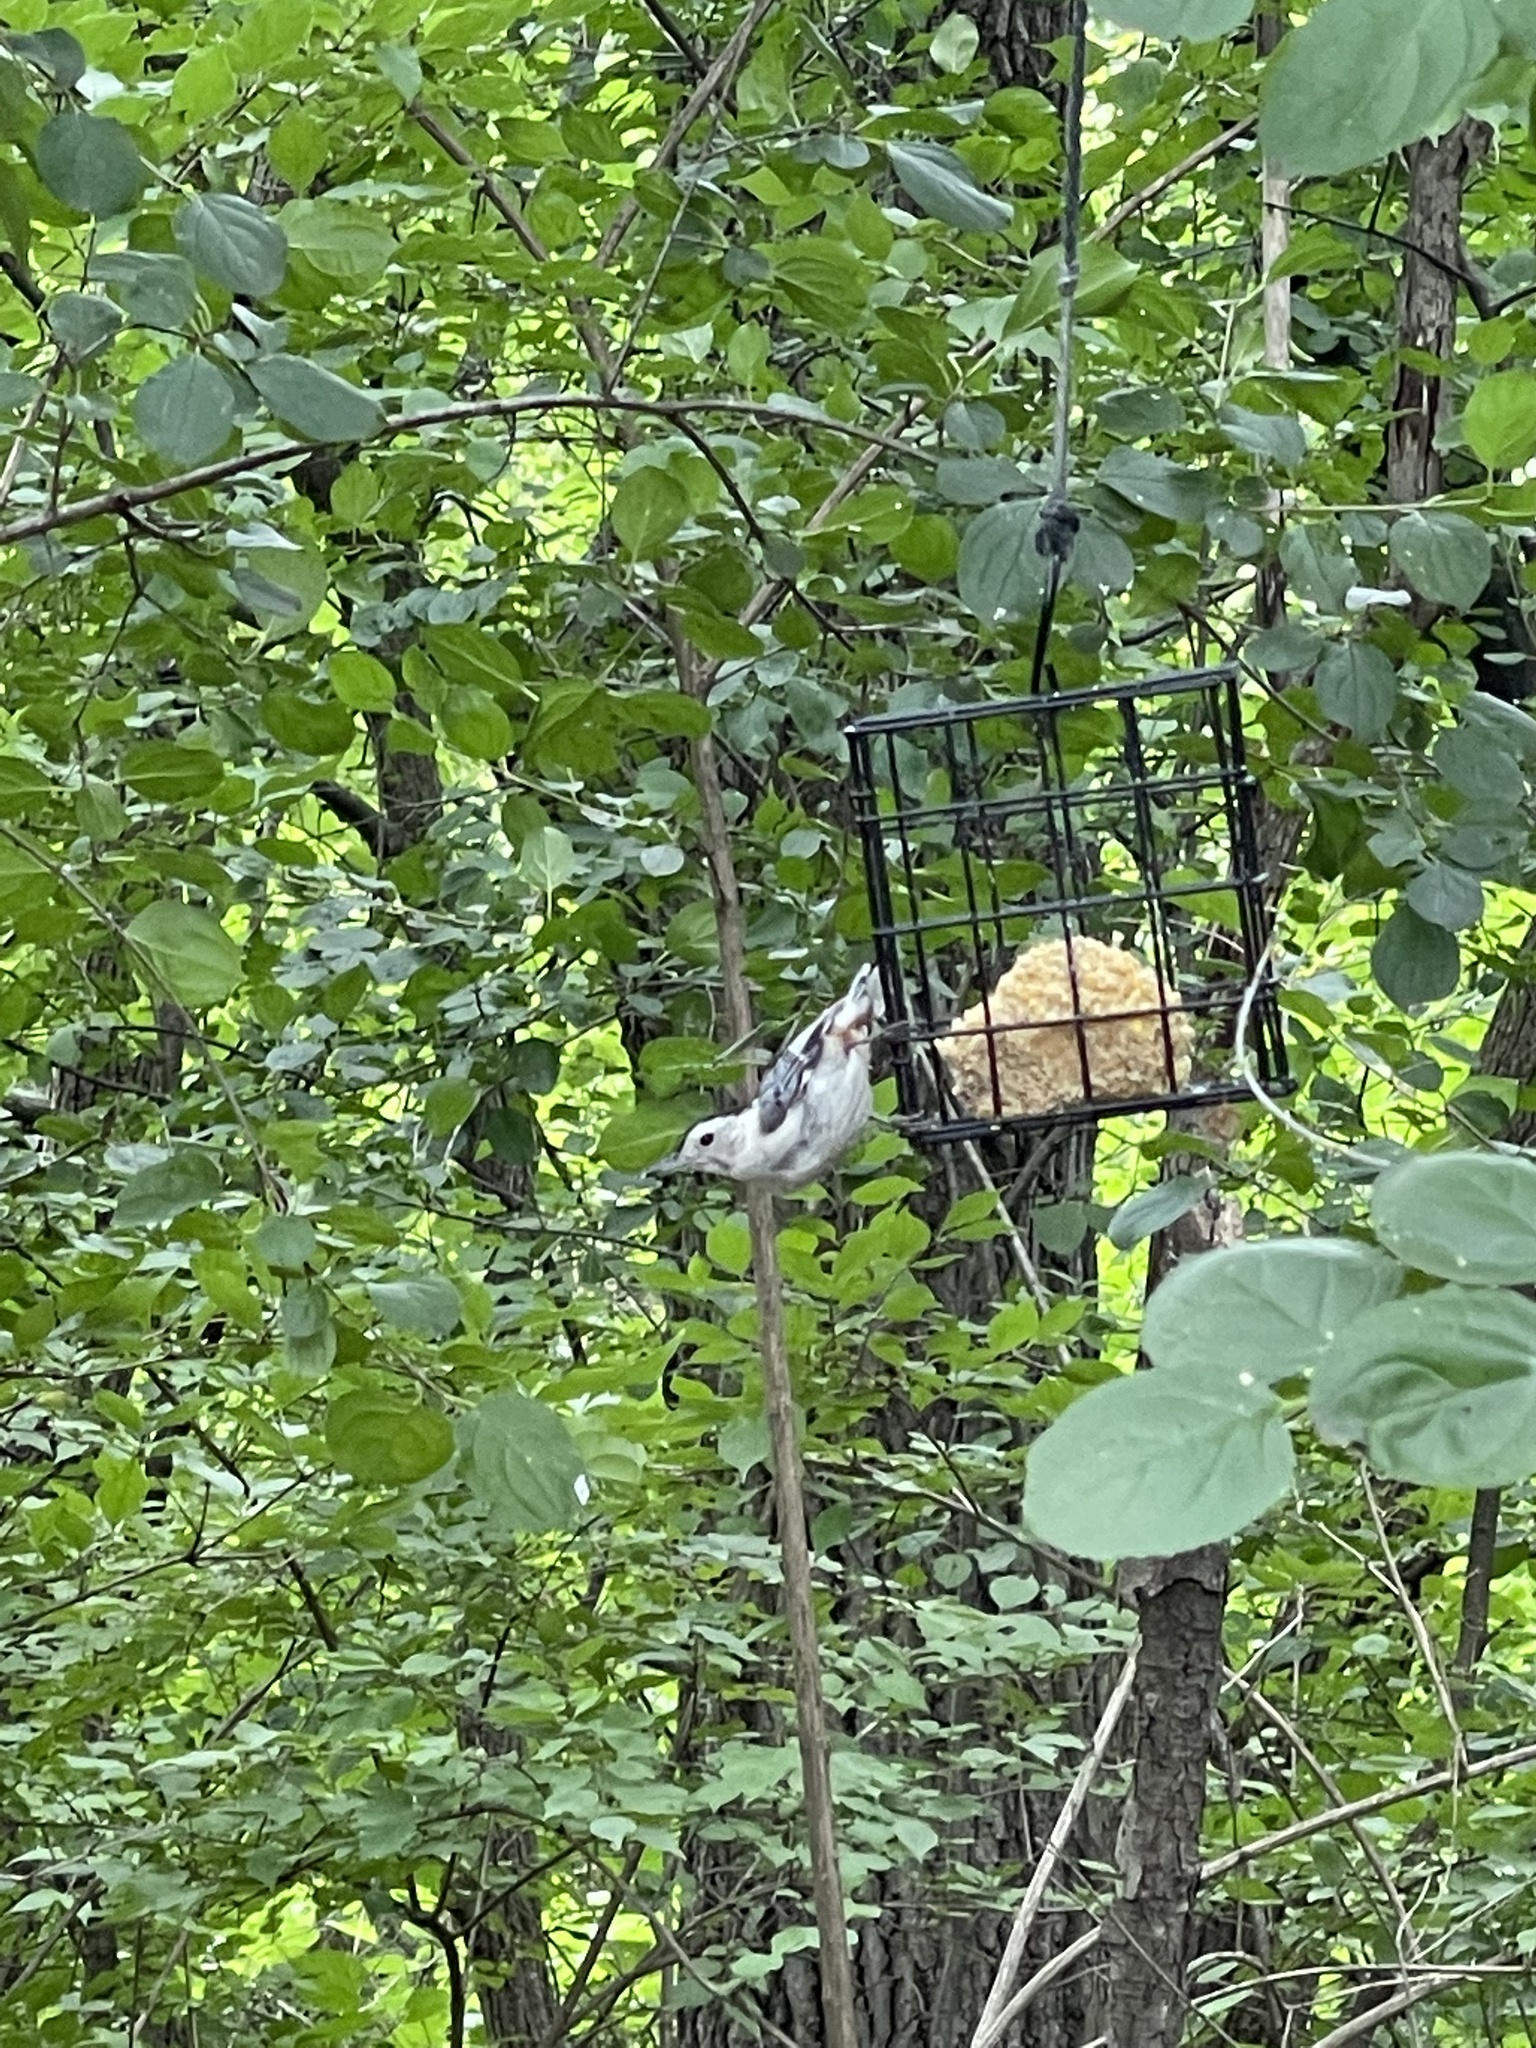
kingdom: Animalia
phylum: Chordata
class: Aves
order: Passeriformes
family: Sittidae
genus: Sitta
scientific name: Sitta carolinensis
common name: White-breasted nuthatch
